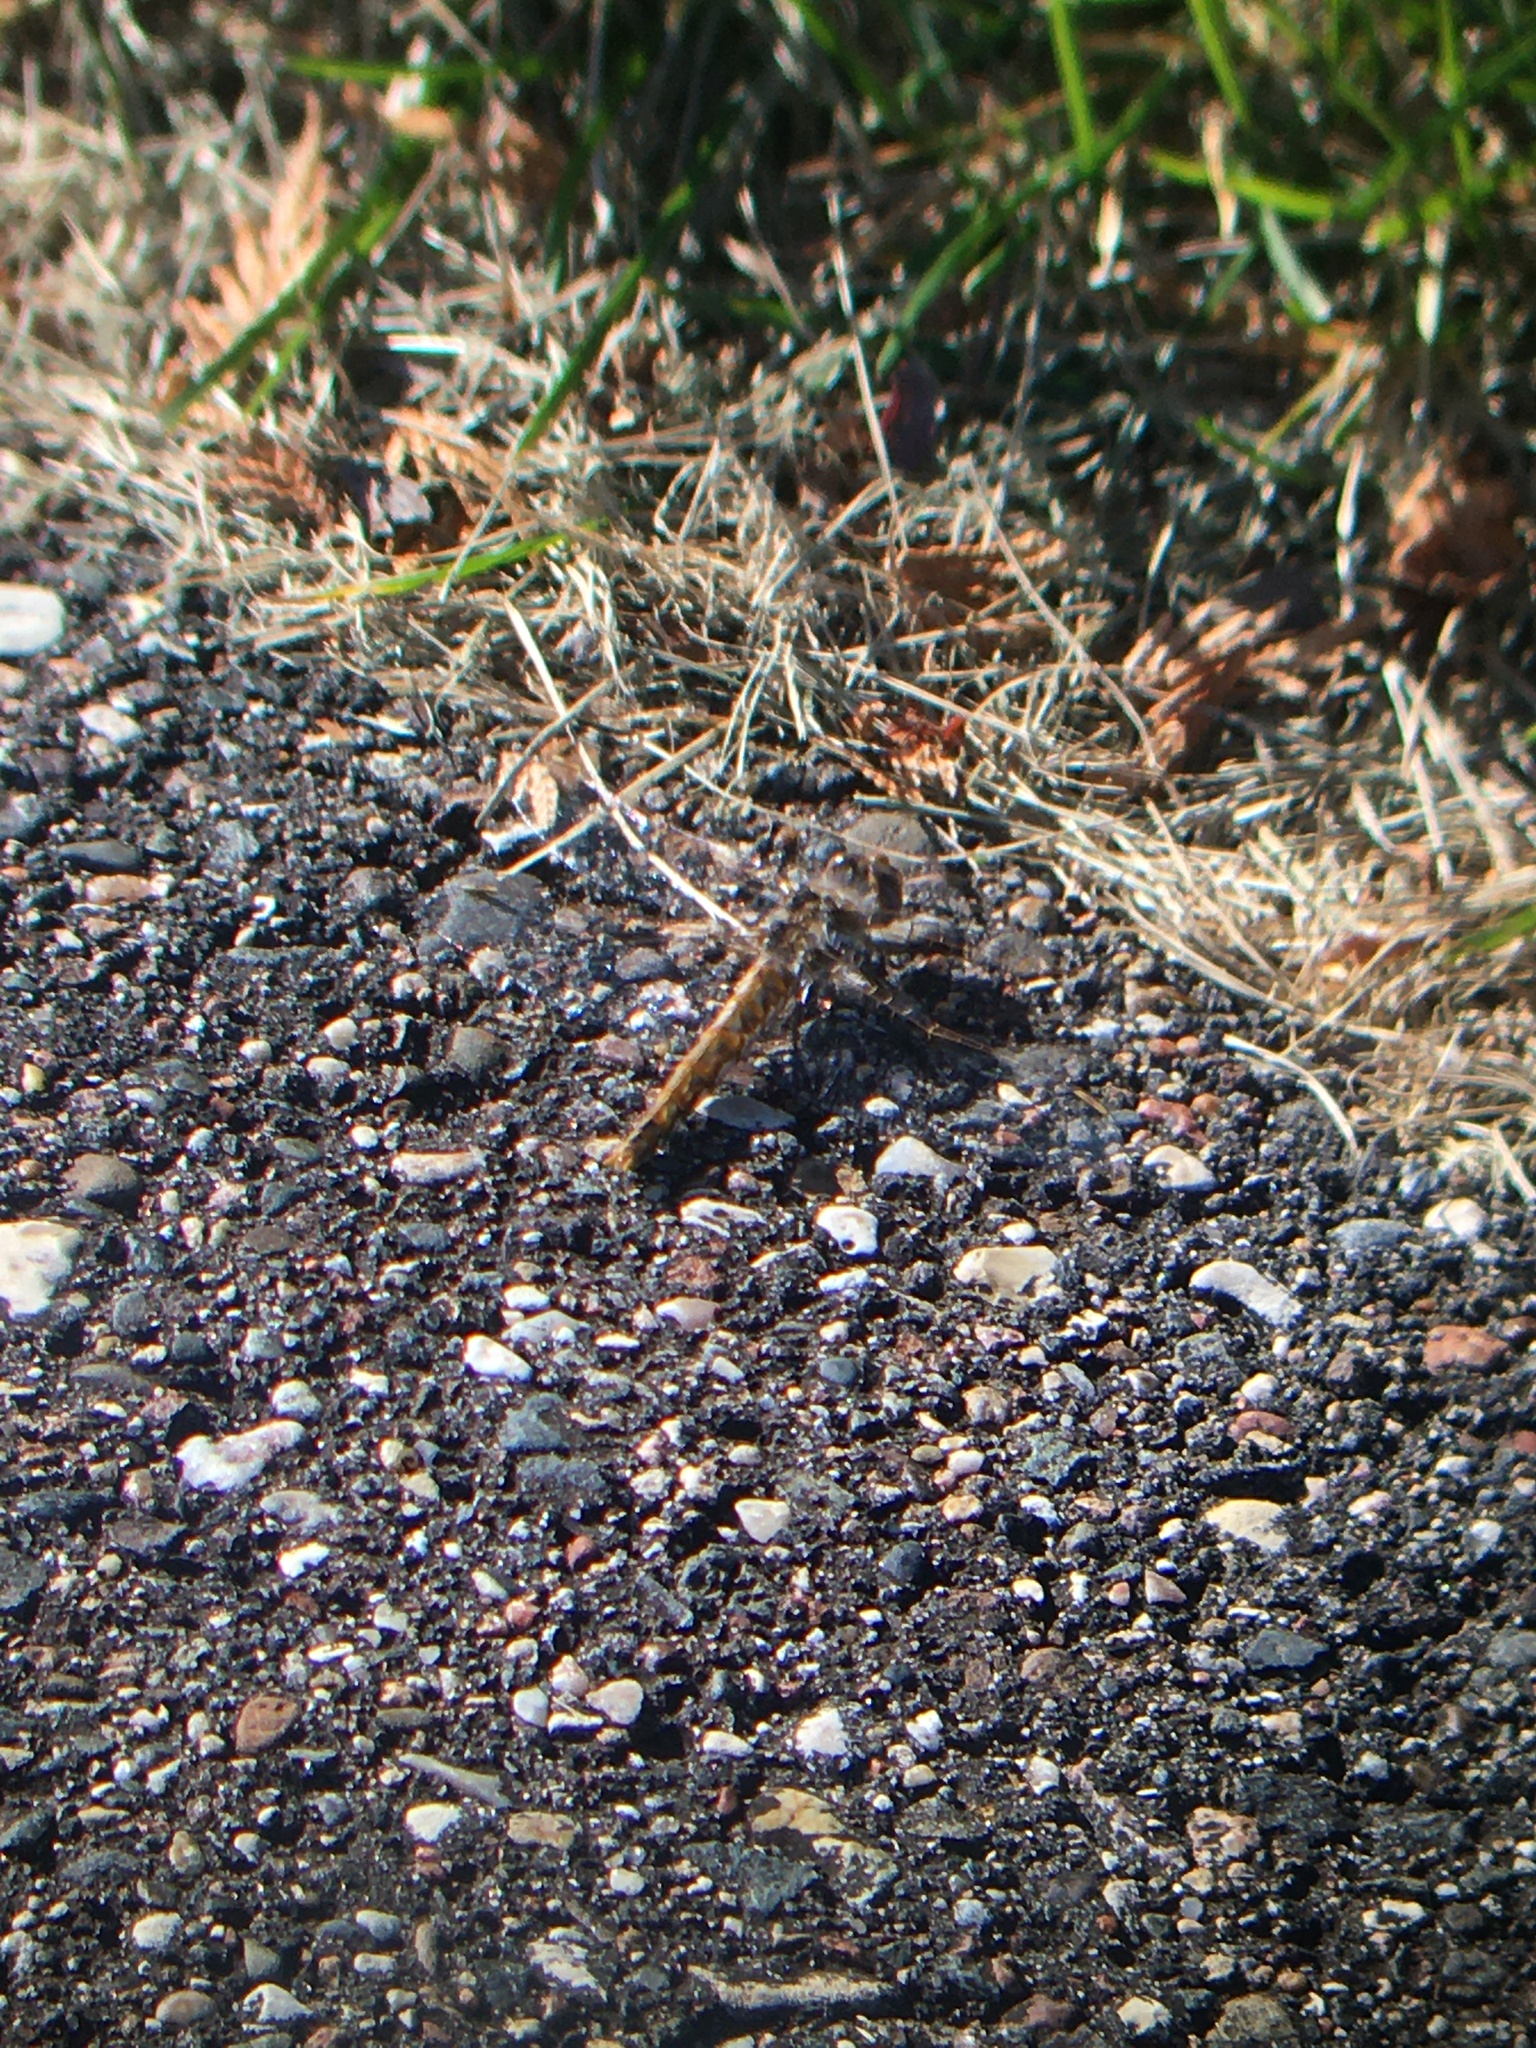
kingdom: Animalia
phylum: Arthropoda
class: Insecta
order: Odonata
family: Libellulidae
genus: Sympetrum
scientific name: Sympetrum corruptum
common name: Variegated meadowhawk
